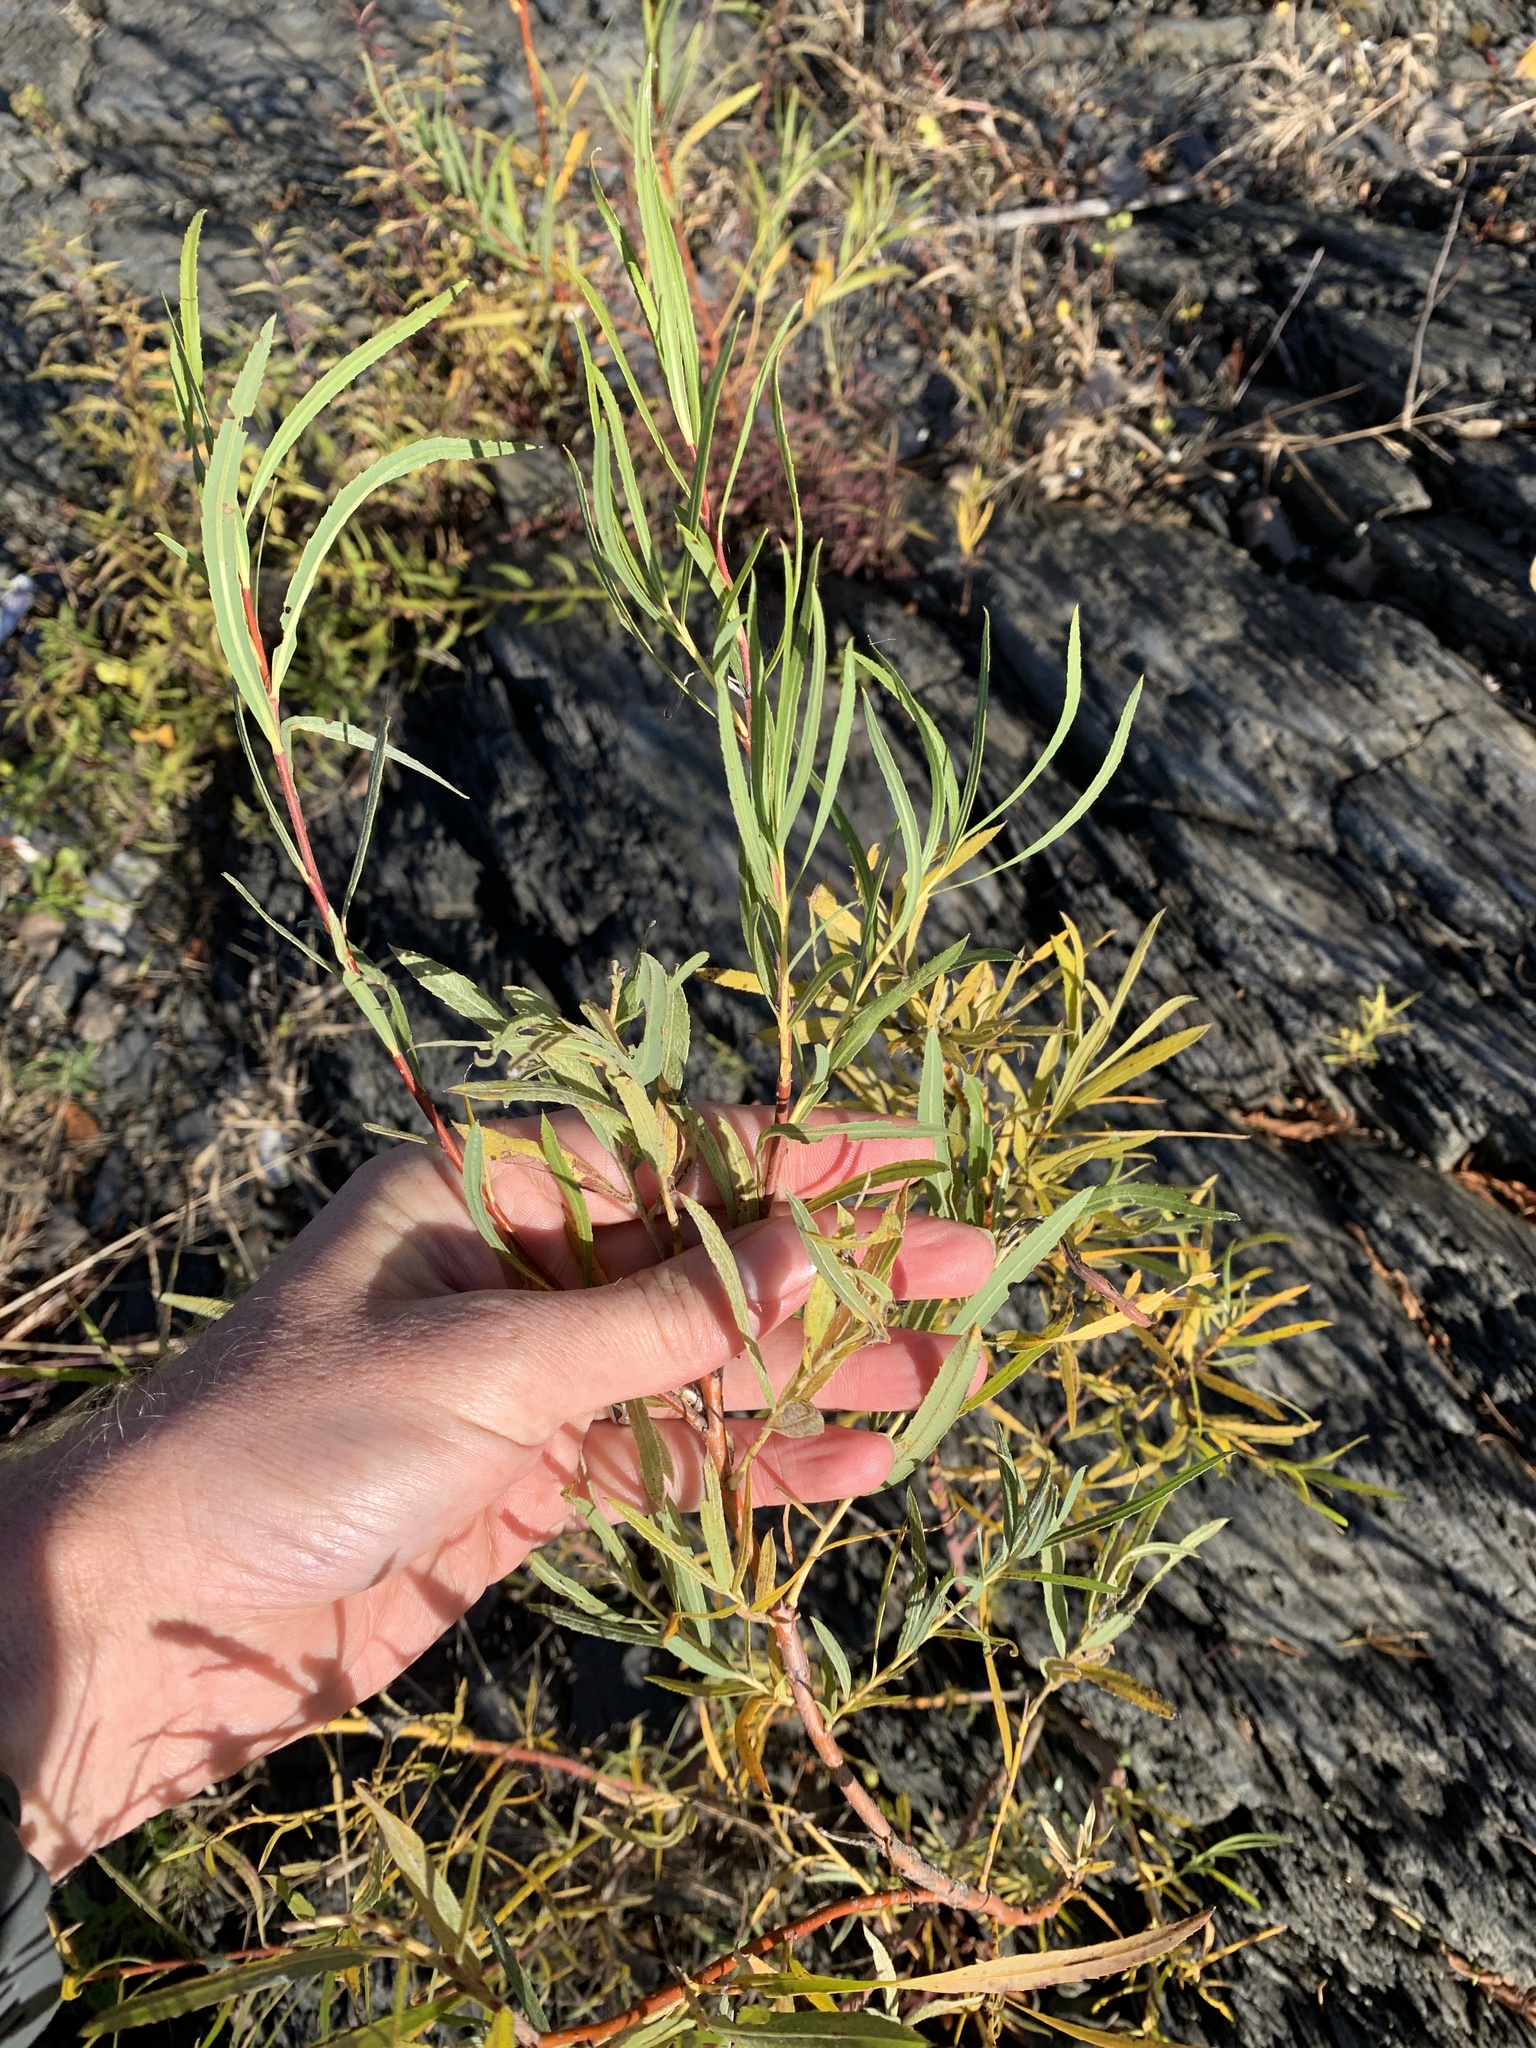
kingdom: Plantae
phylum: Tracheophyta
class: Magnoliopsida
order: Malpighiales
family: Salicaceae
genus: Salix
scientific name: Salix interior
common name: Sandbar willow
